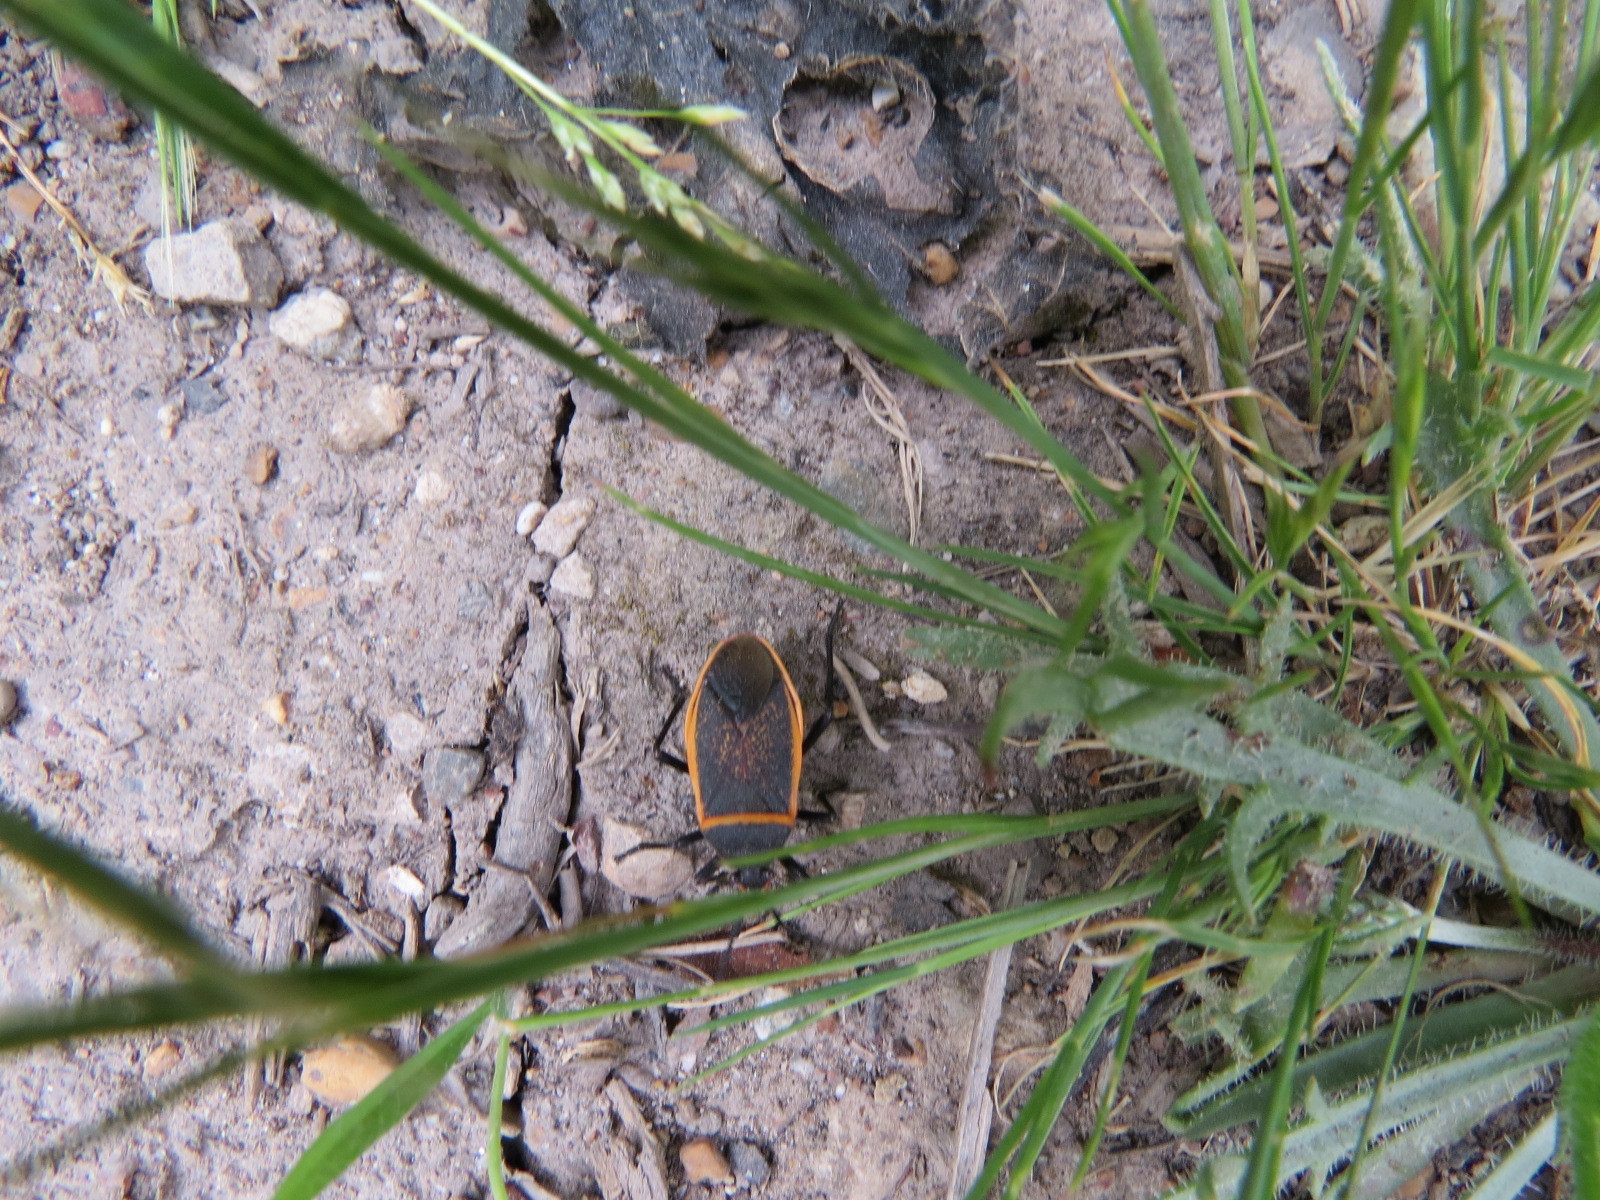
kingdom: Animalia
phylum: Arthropoda
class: Insecta
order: Hemiptera
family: Largidae
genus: Largus
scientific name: Largus californicus
